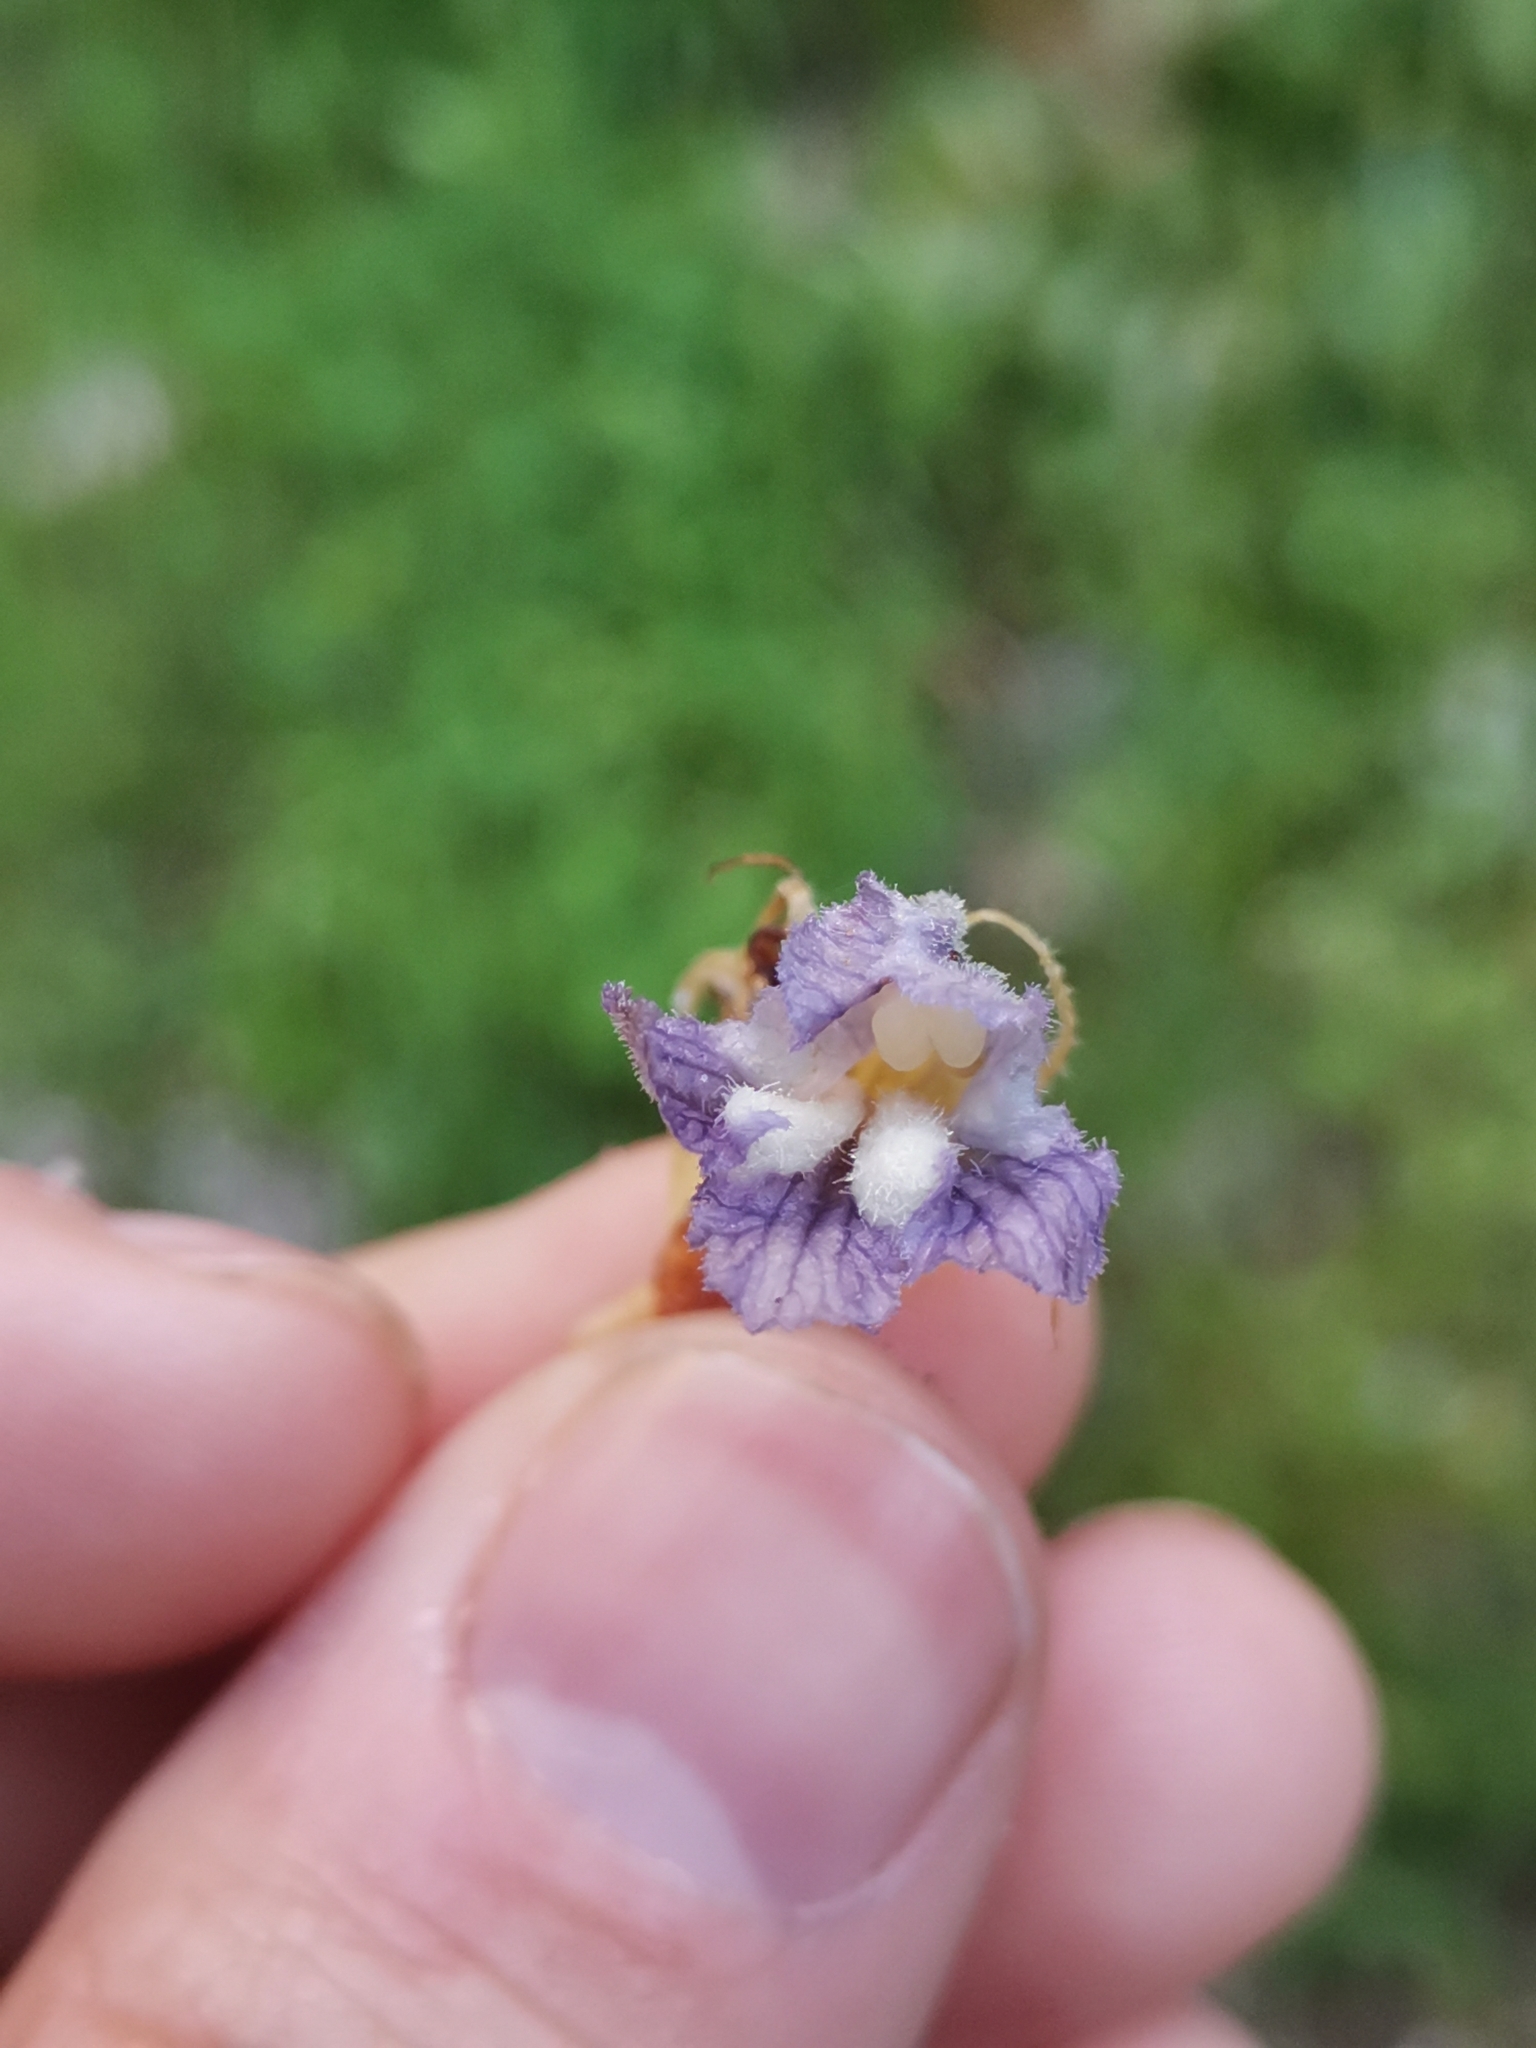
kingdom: Plantae
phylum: Tracheophyta
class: Magnoliopsida
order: Lamiales
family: Orobanchaceae
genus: Phelipanche
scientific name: Phelipanche schultzii
